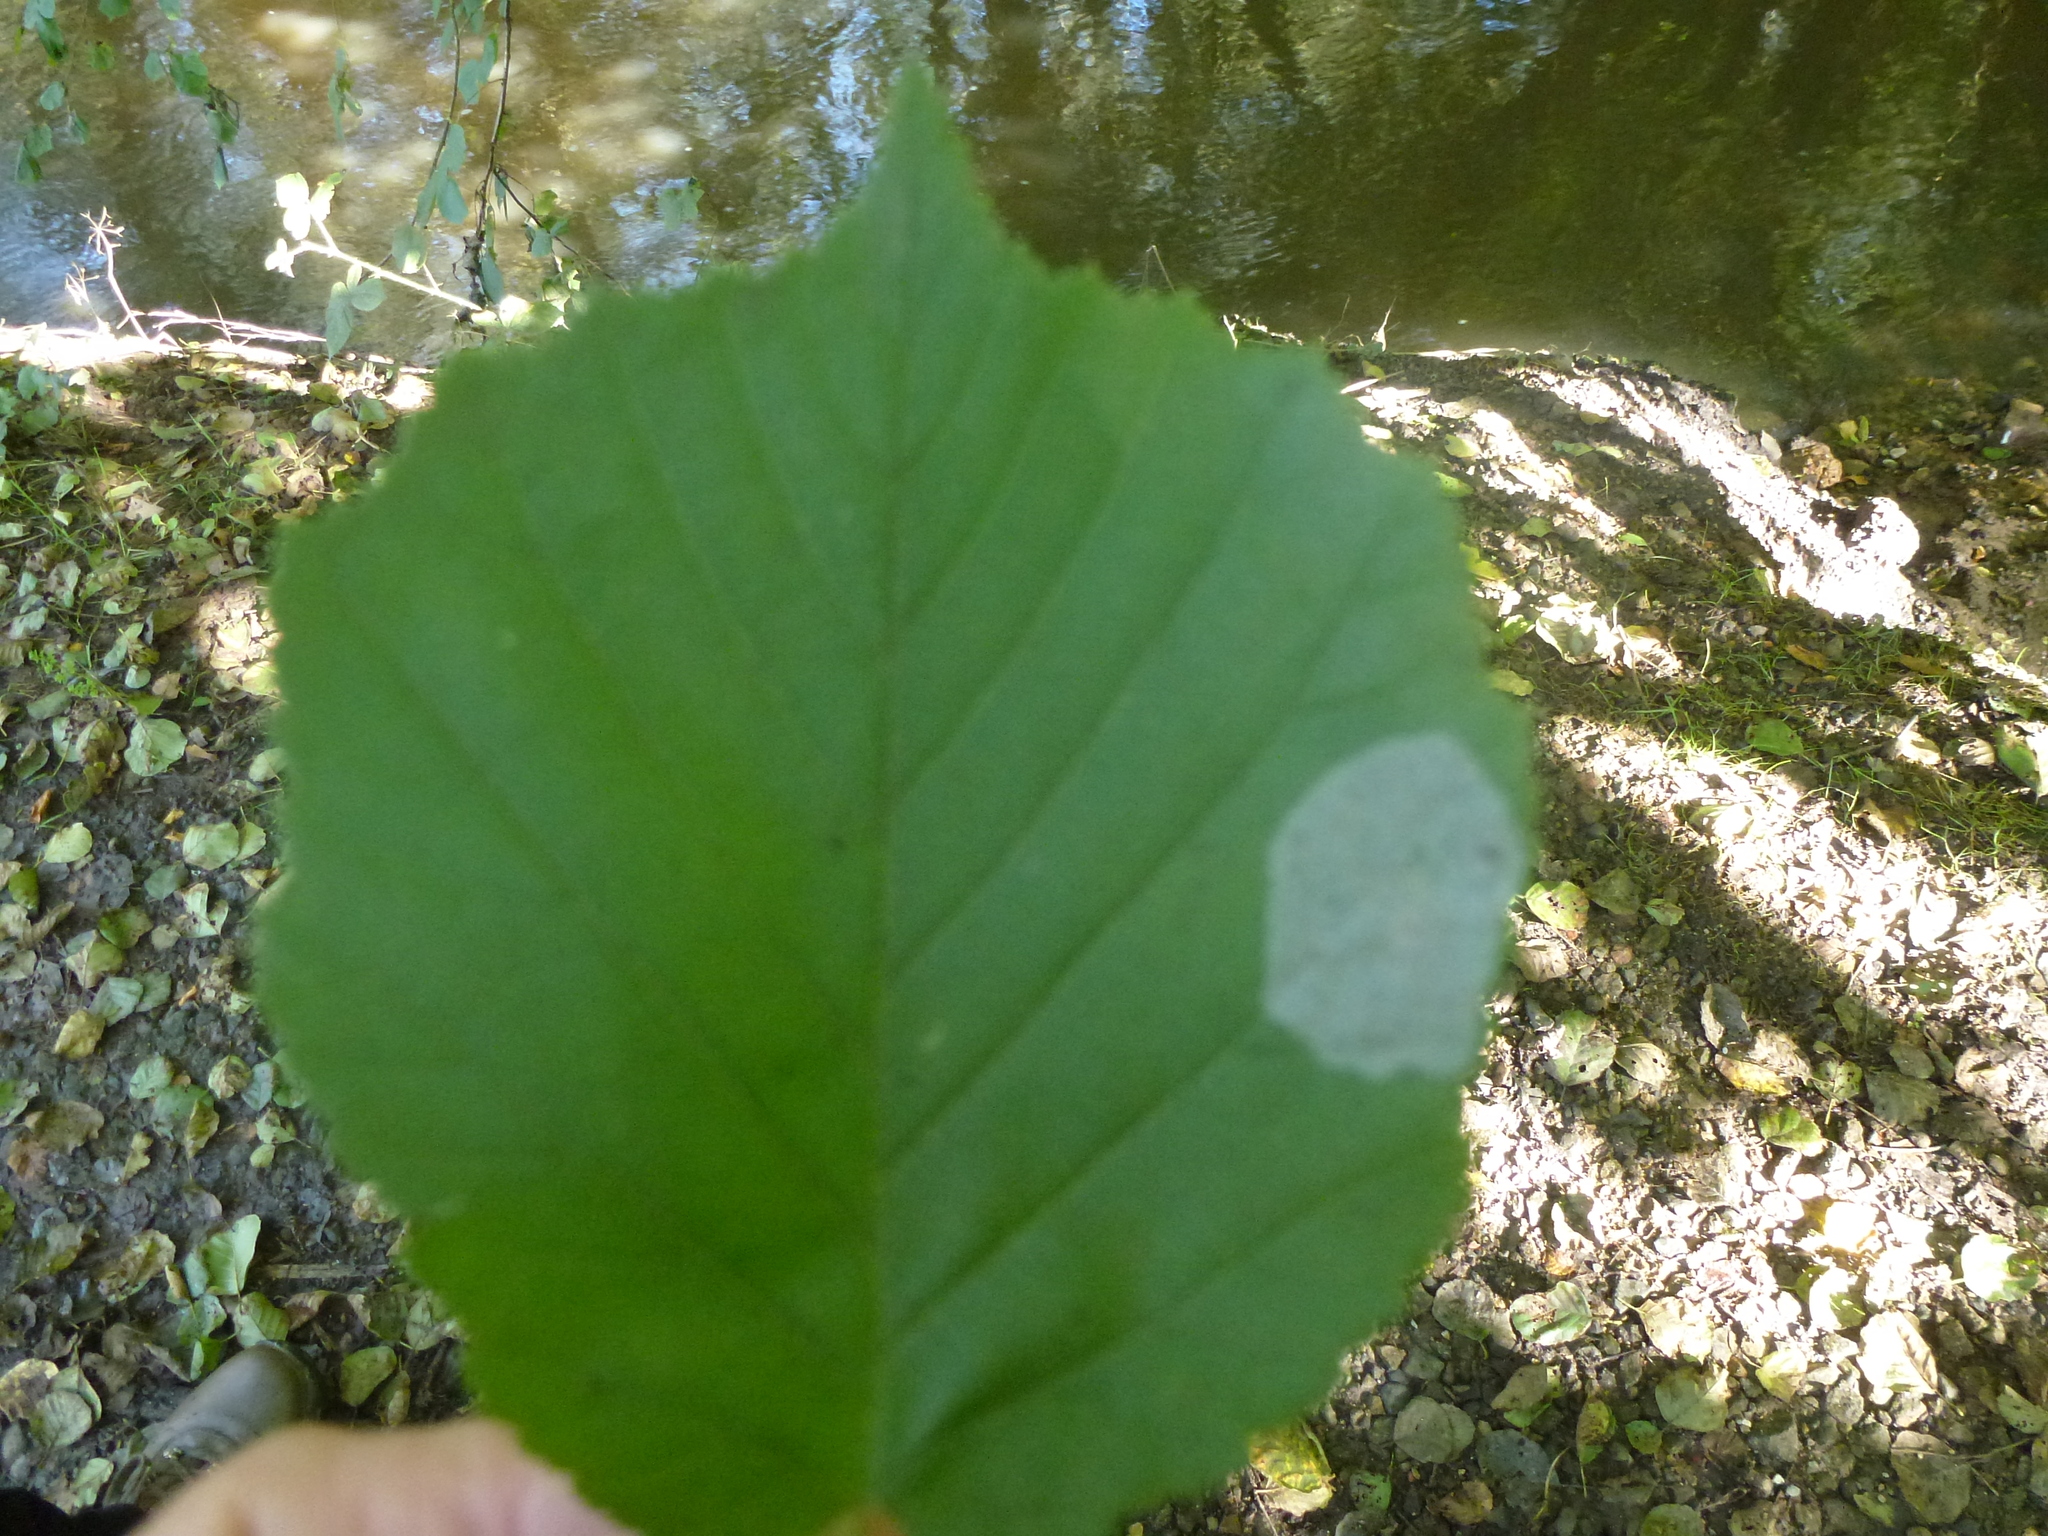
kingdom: Animalia
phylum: Arthropoda
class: Insecta
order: Lepidoptera
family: Gracillariidae
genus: Phyllonorycter
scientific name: Phyllonorycter coryli
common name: Nut-leaf blister moth
